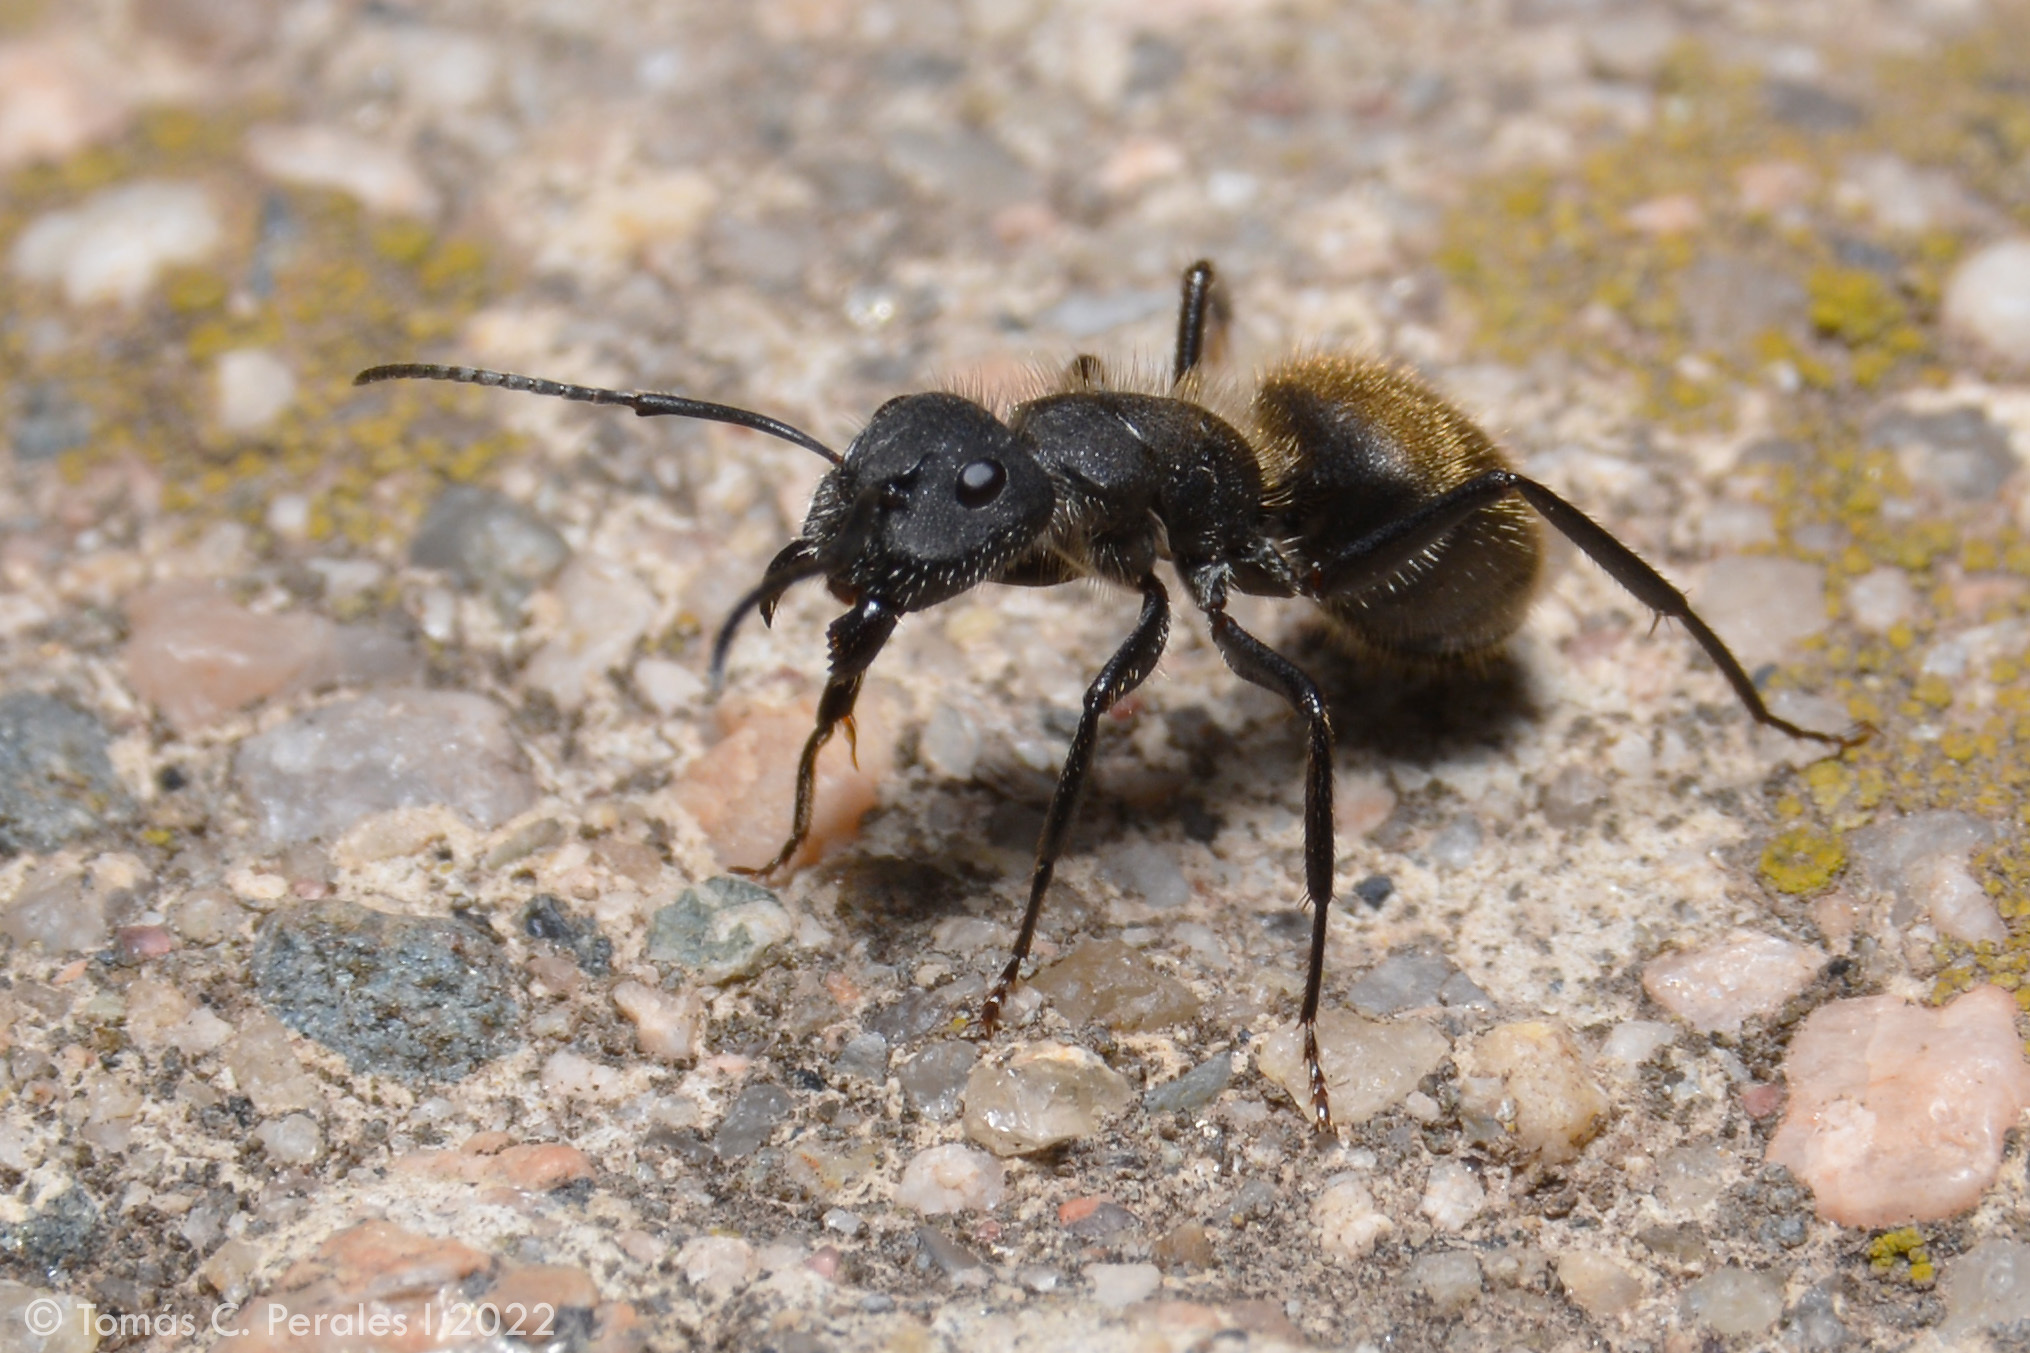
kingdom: Animalia
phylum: Arthropoda
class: Insecta
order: Hymenoptera
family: Formicidae
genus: Camponotus
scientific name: Camponotus mus
